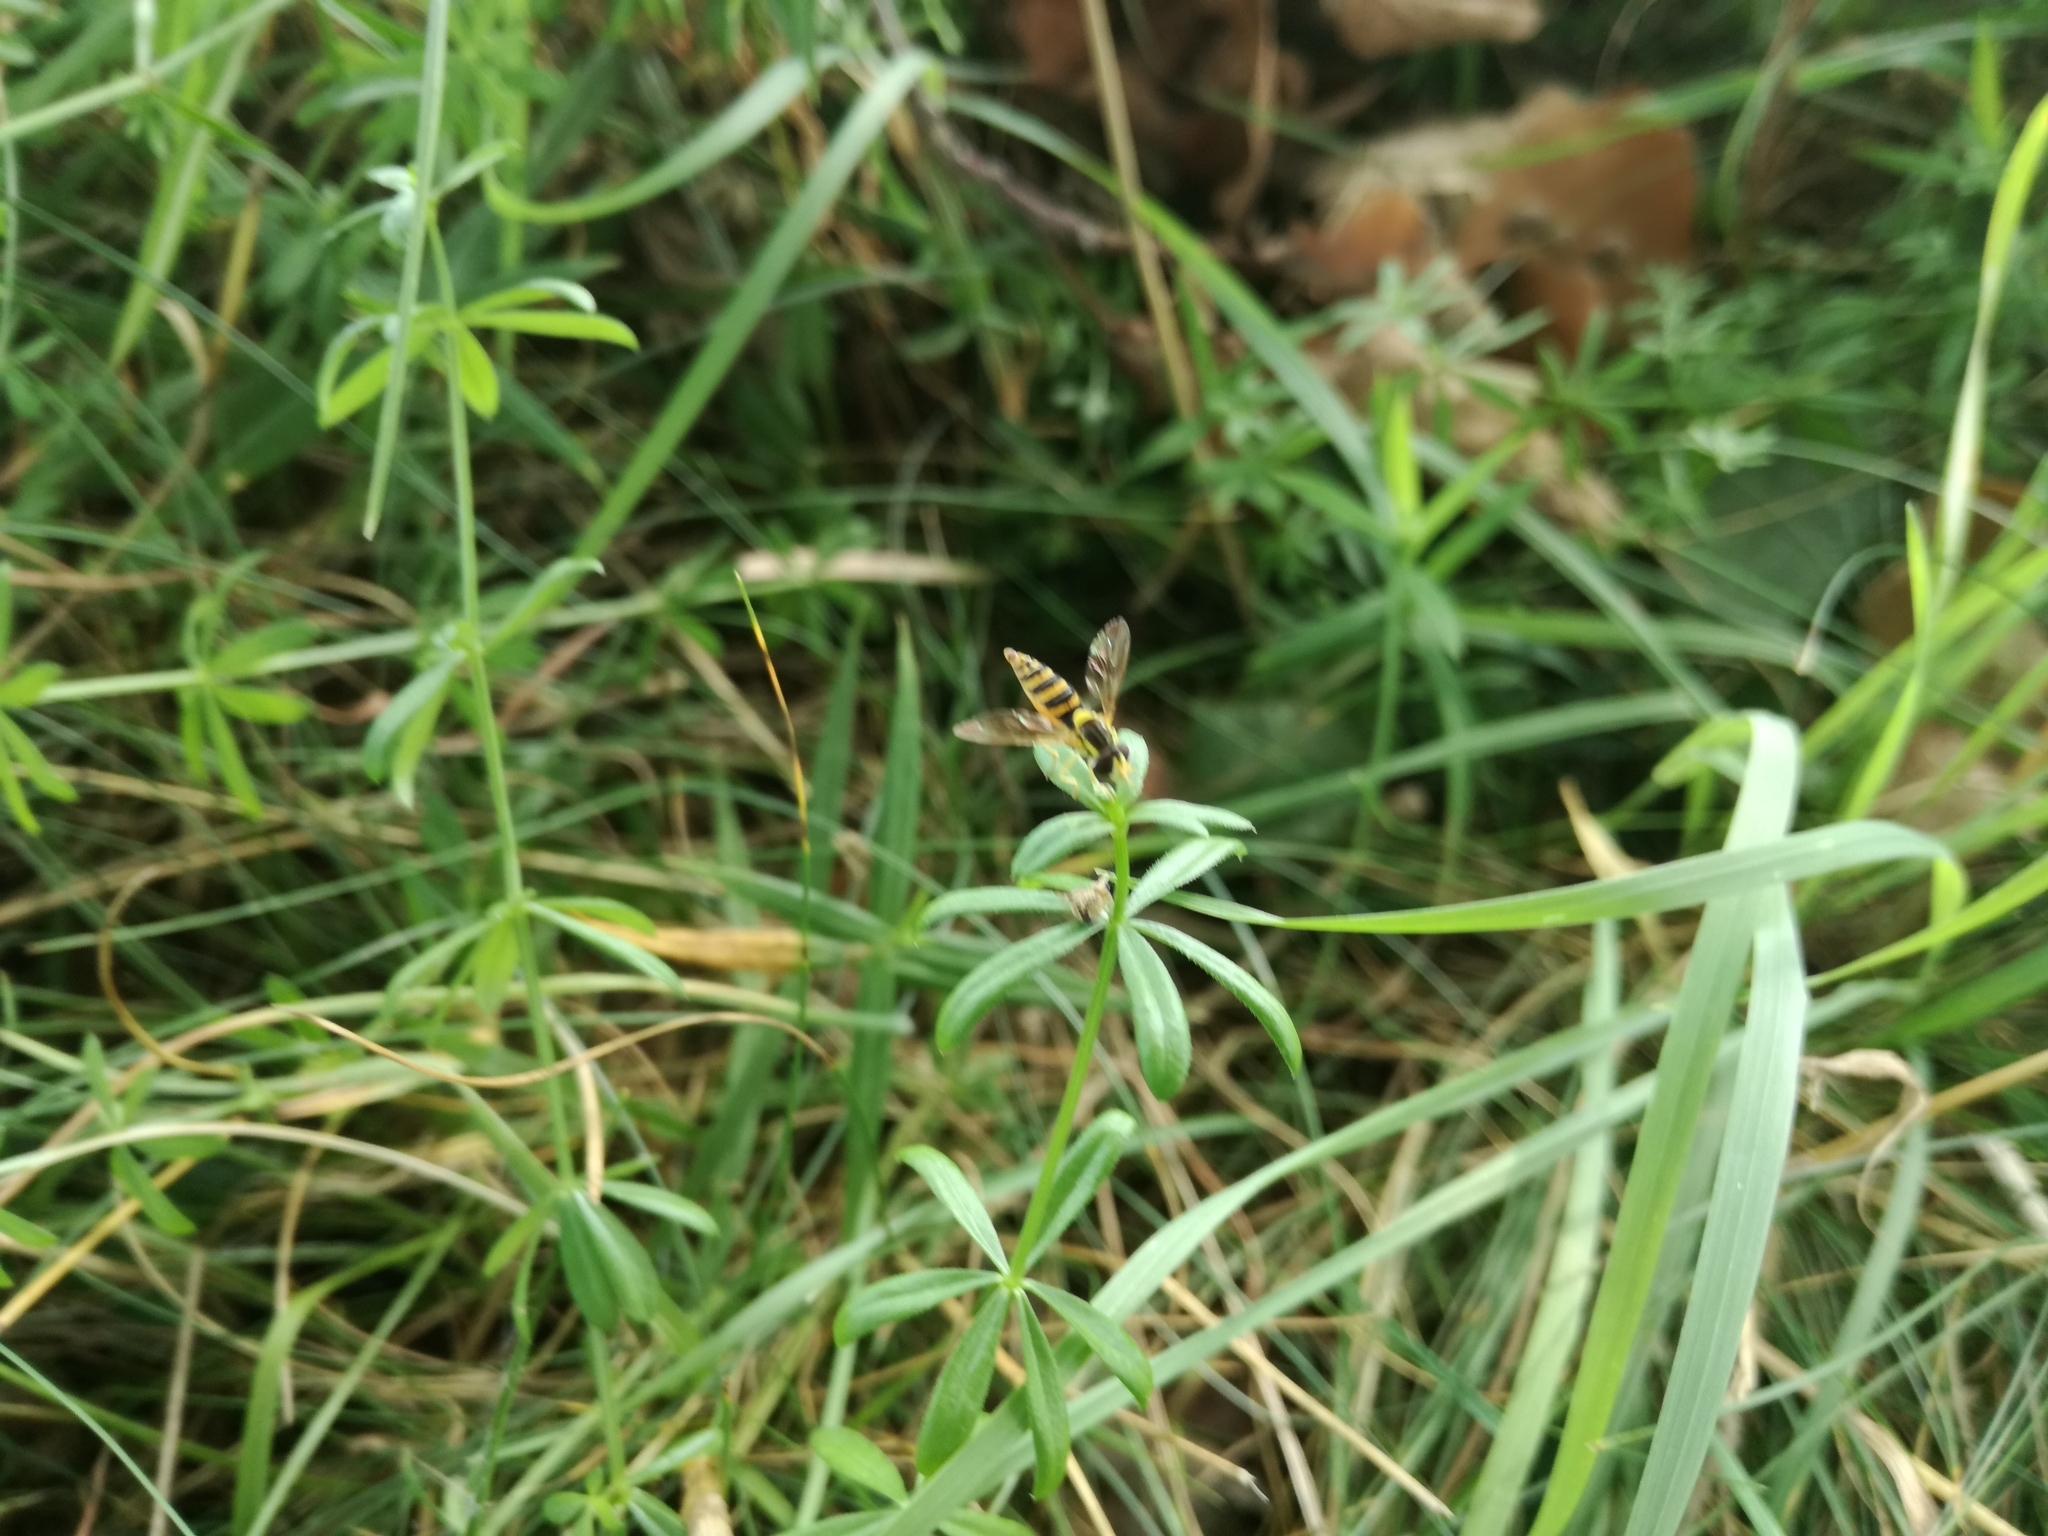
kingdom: Animalia
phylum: Arthropoda
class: Insecta
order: Diptera
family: Syrphidae
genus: Sphaerophoria
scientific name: Sphaerophoria
